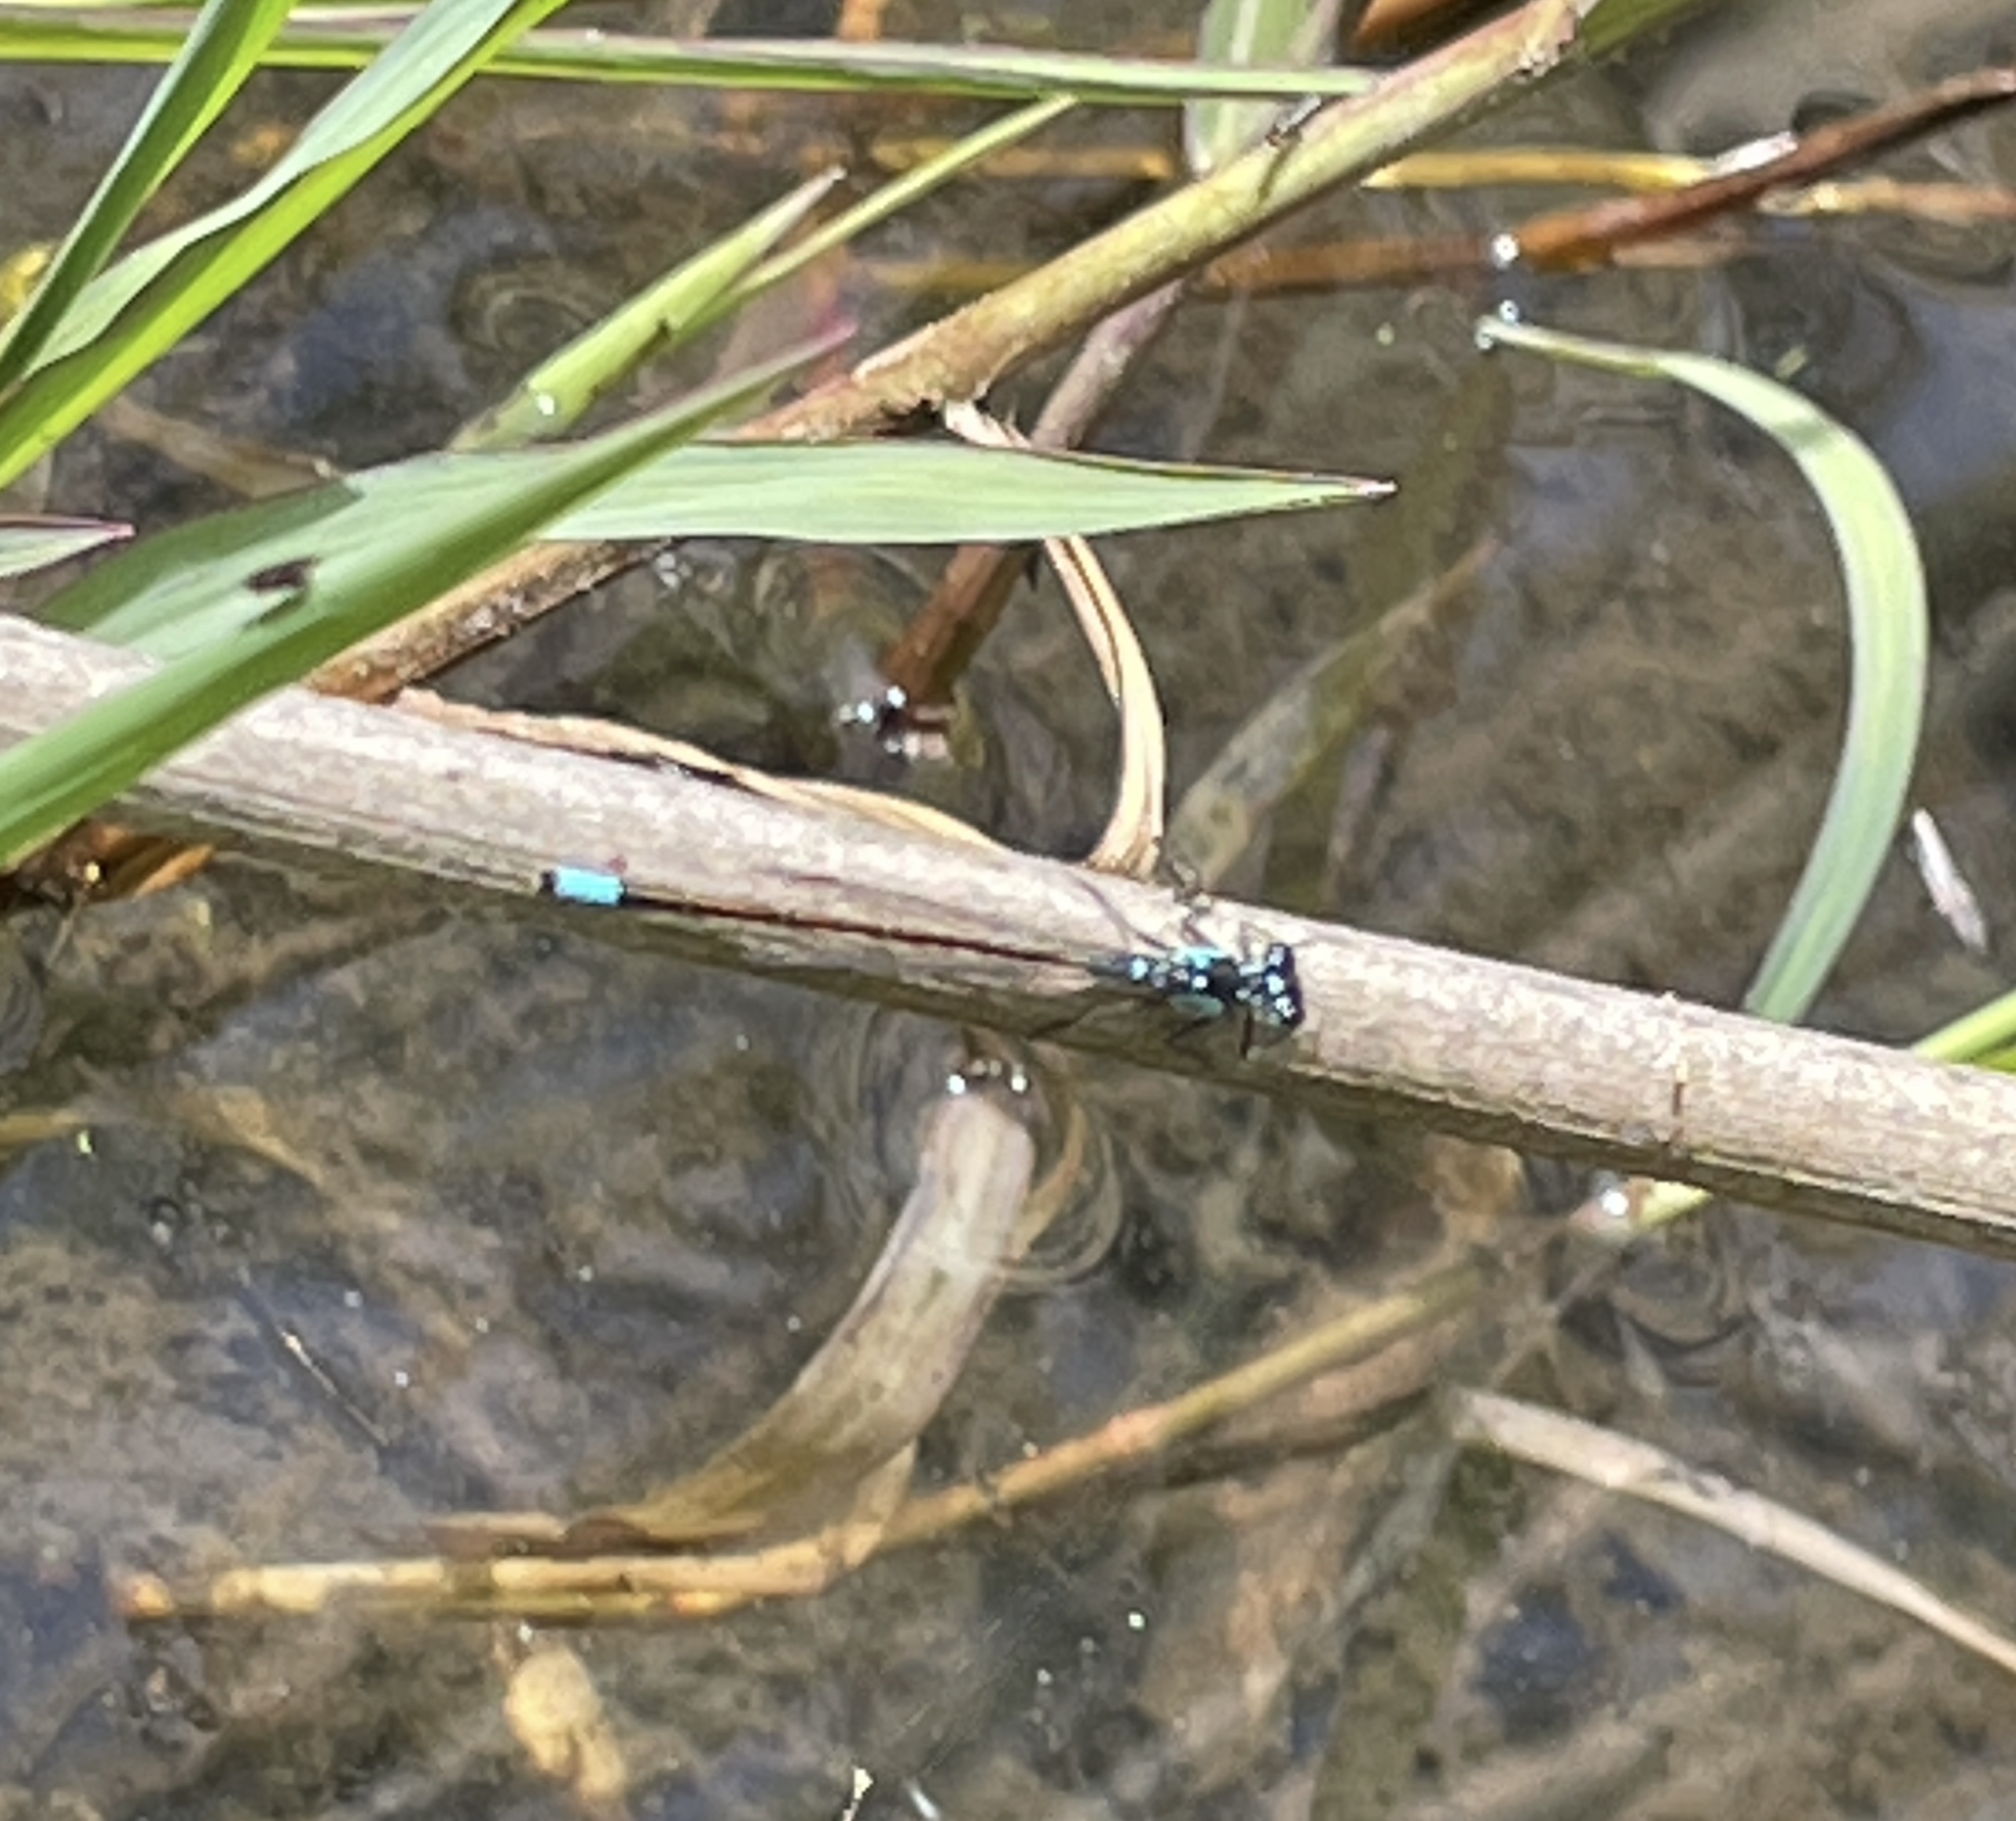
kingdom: Animalia
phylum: Arthropoda
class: Insecta
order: Odonata
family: Coenagrionidae
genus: Ischnura
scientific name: Ischnura cervula
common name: Pacific forktail
